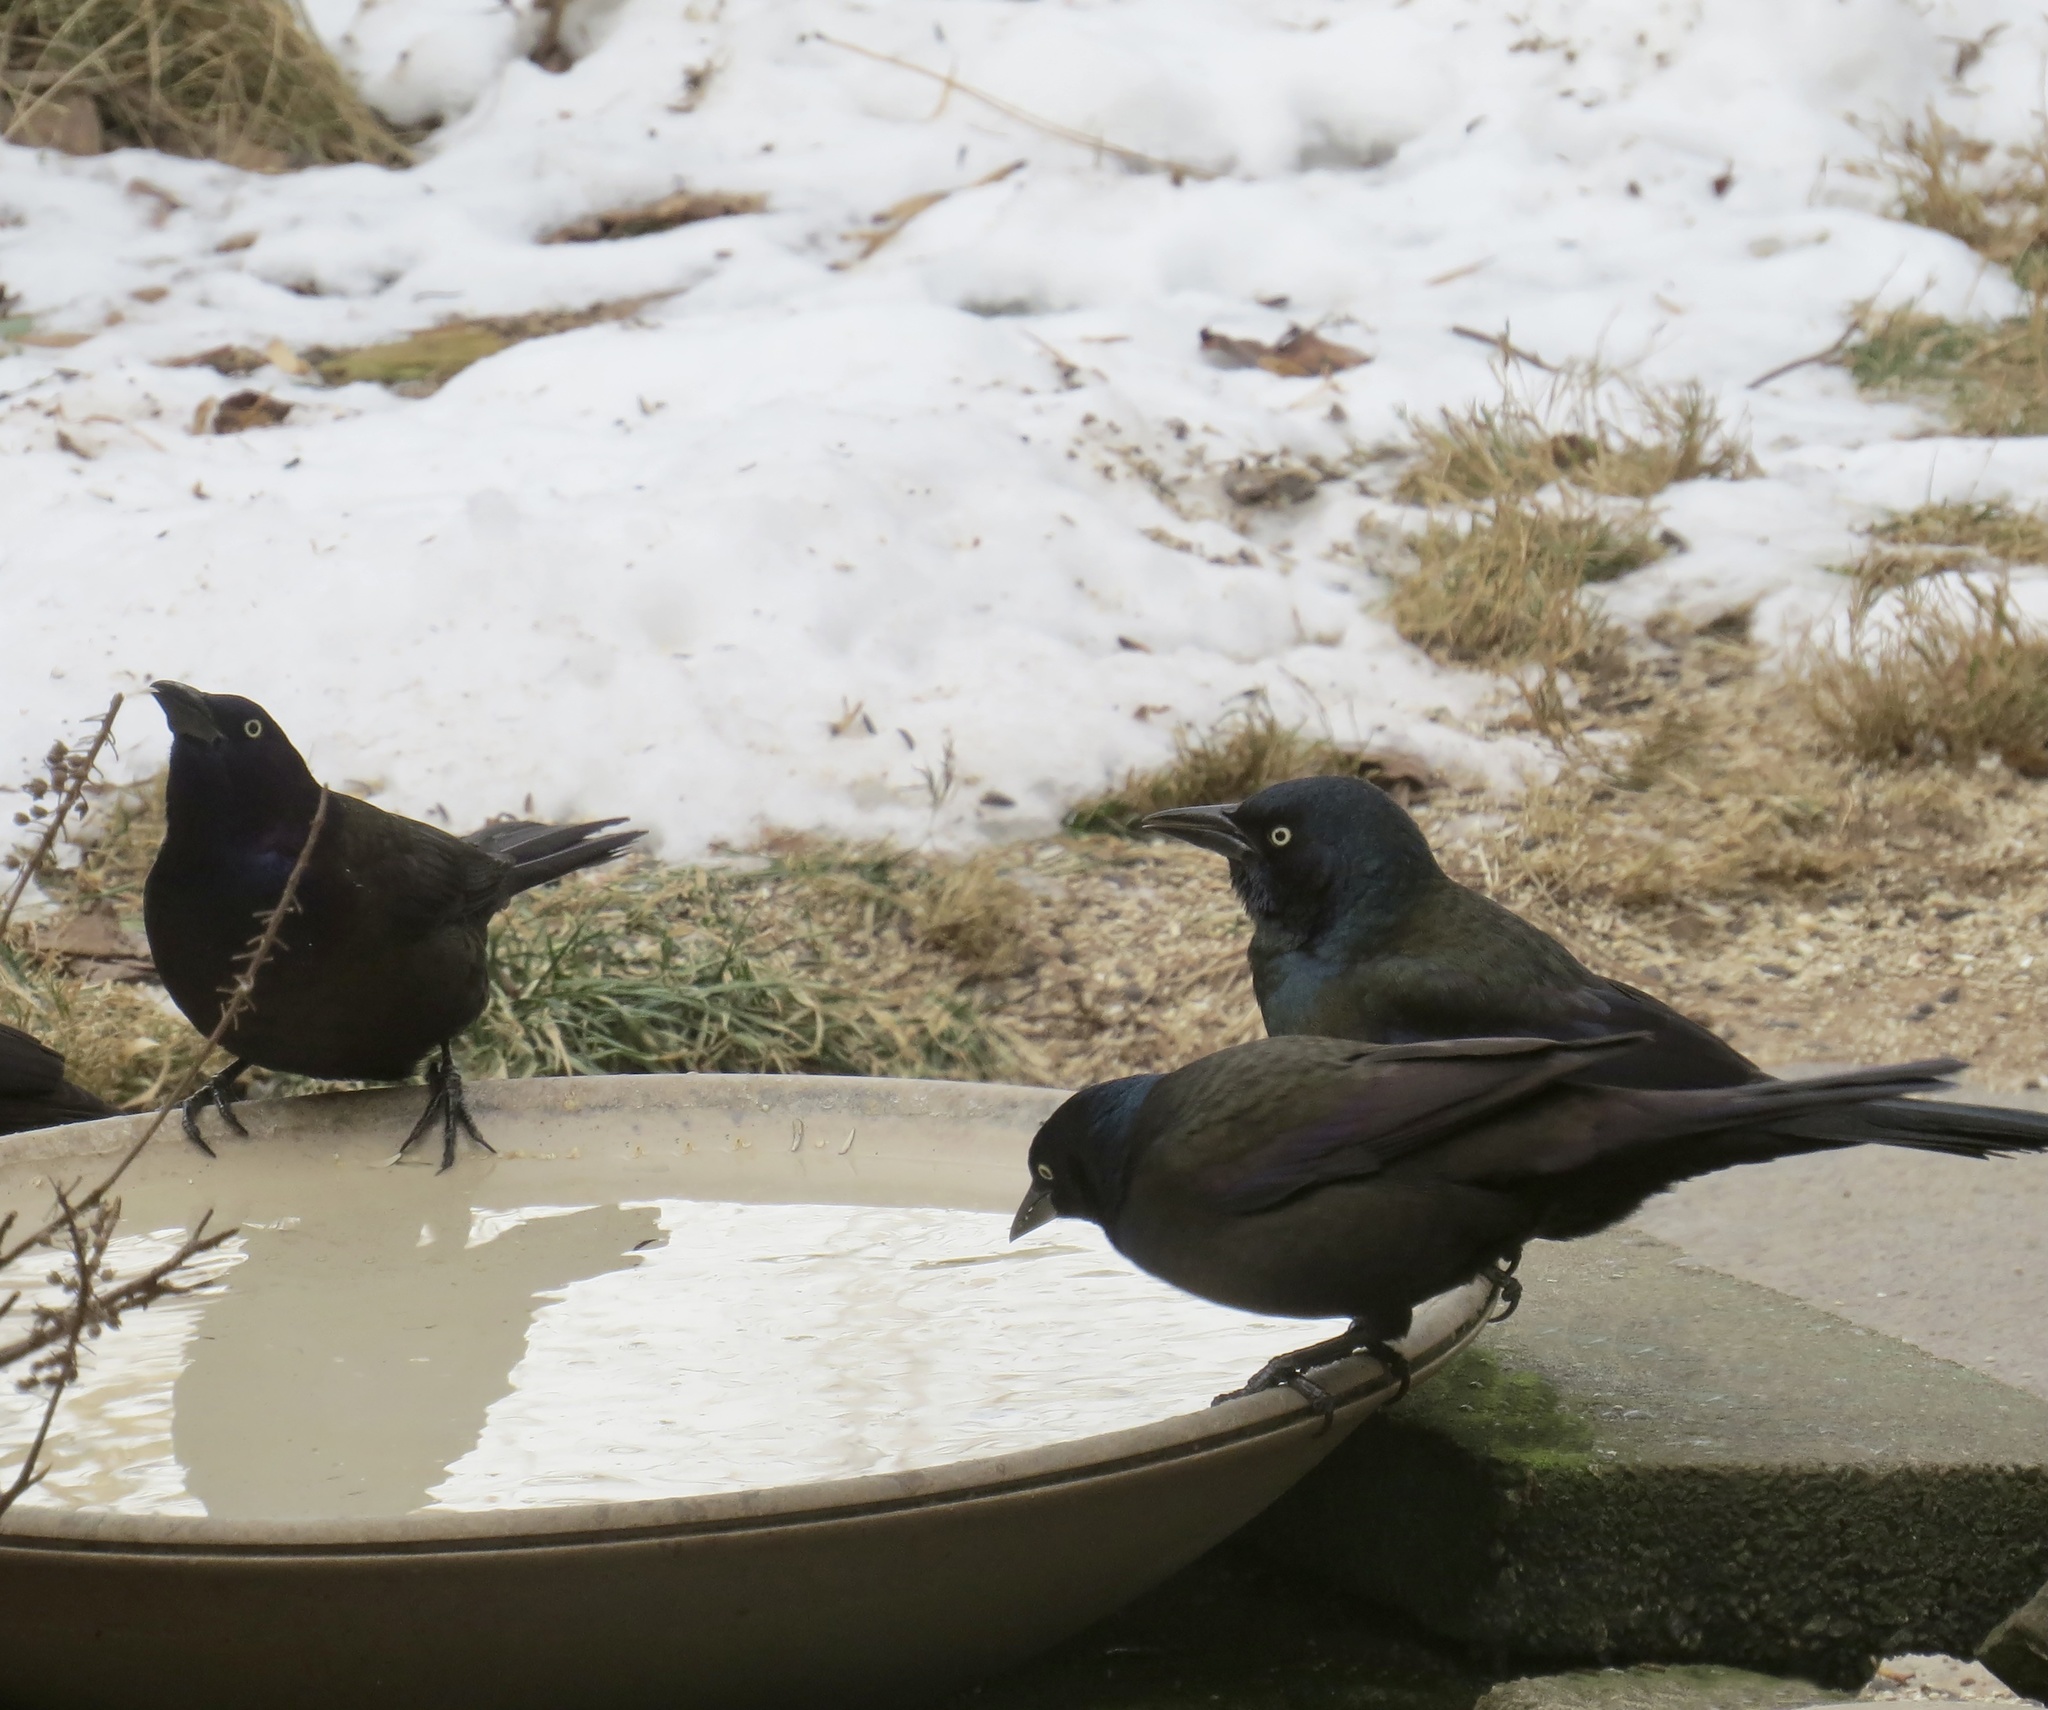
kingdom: Animalia
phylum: Chordata
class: Aves
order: Passeriformes
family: Icteridae
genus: Quiscalus
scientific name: Quiscalus quiscula
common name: Common grackle
